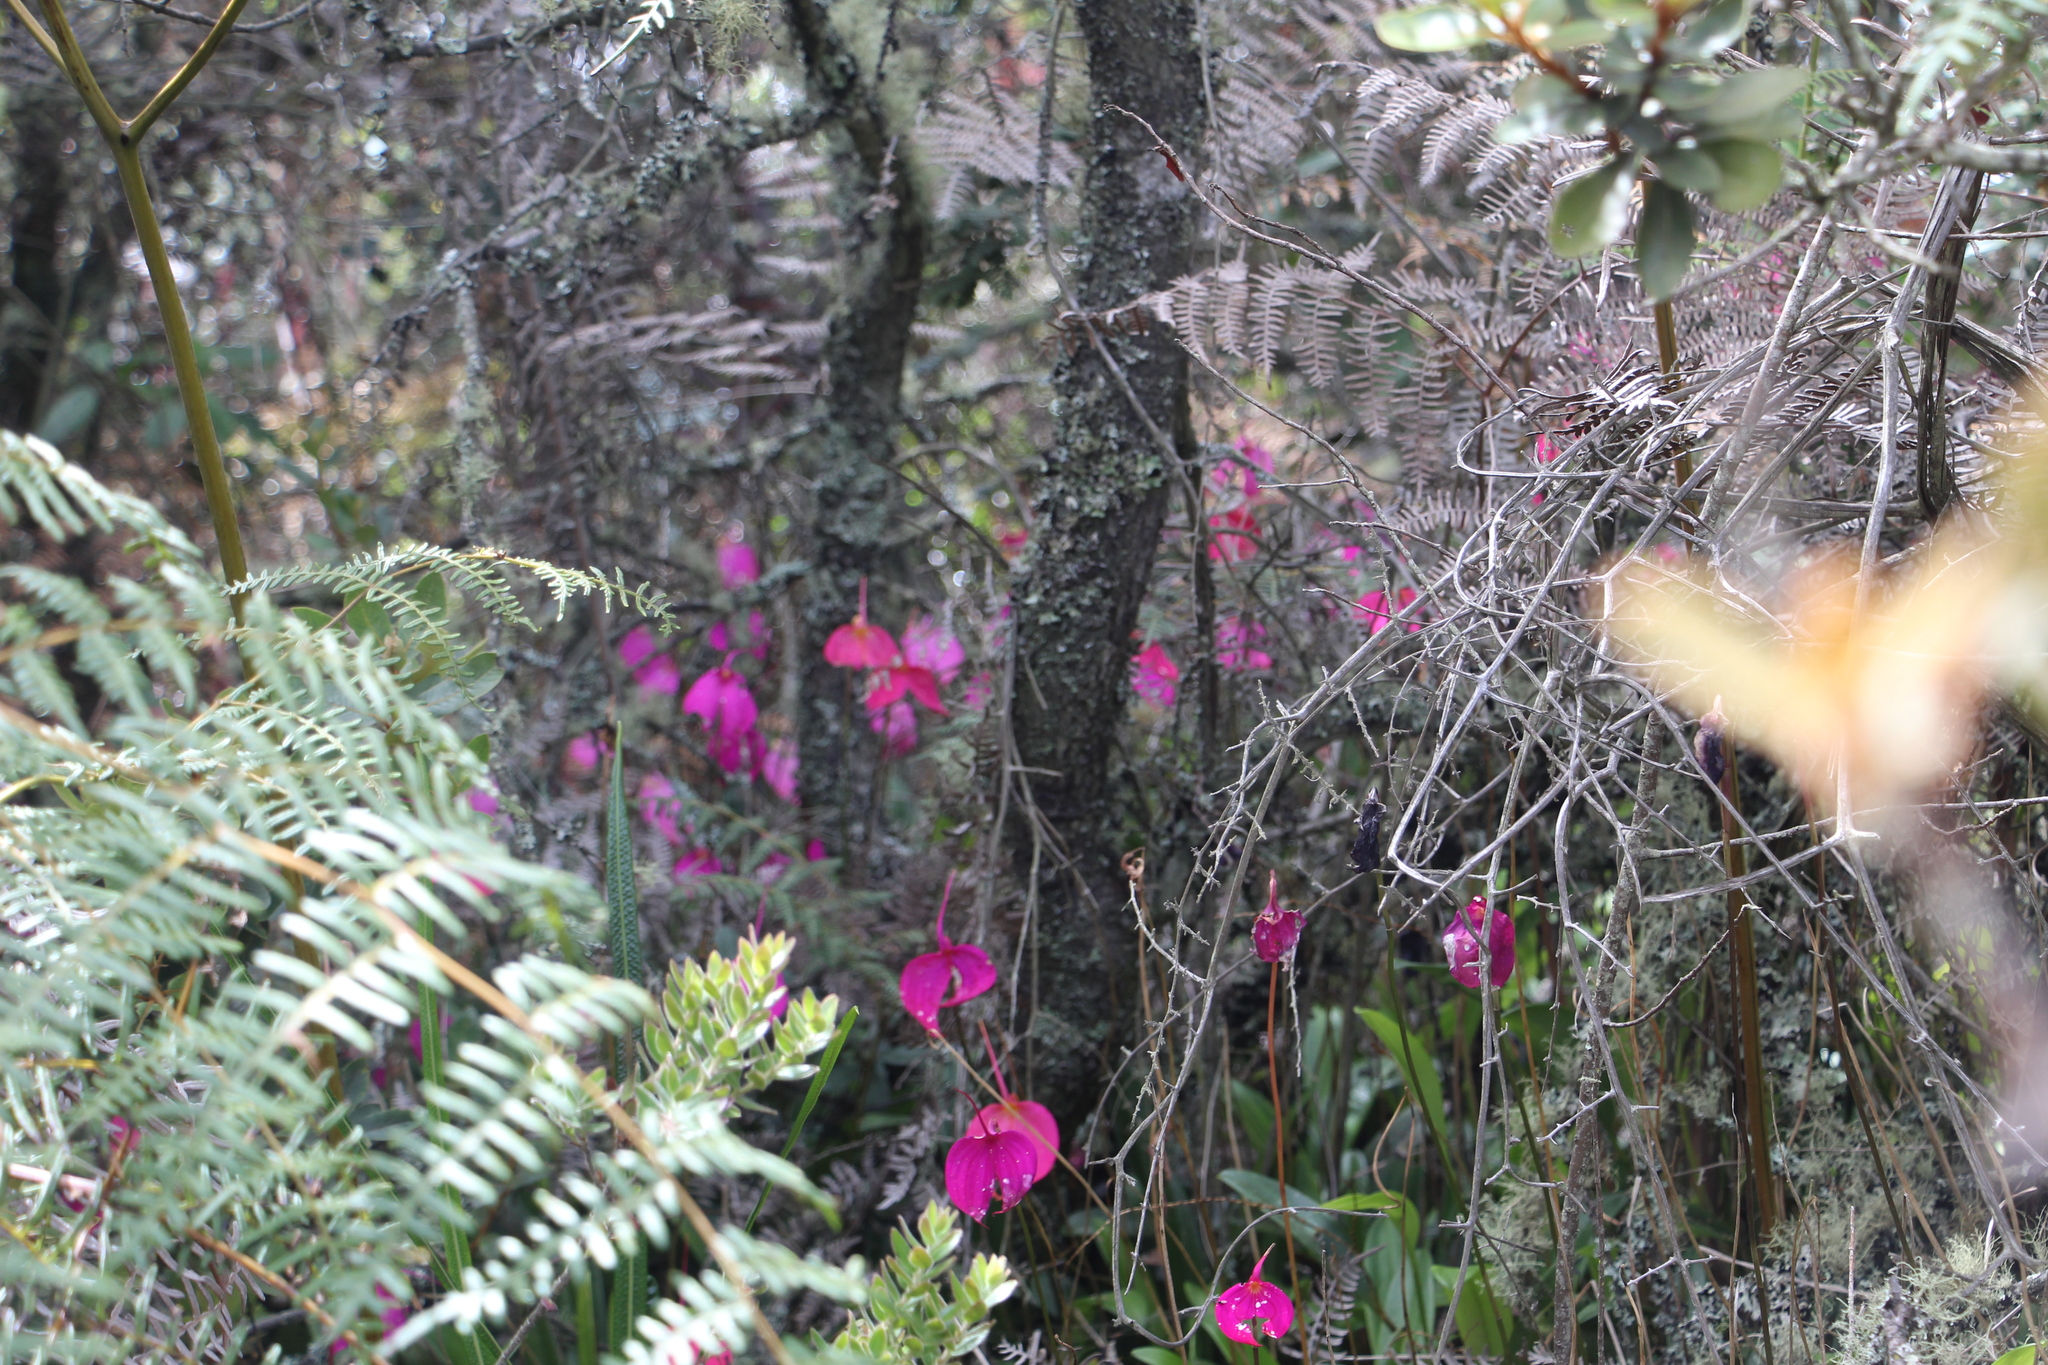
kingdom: Plantae
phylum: Tracheophyta
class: Liliopsida
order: Asparagales
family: Orchidaceae
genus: Masdevallia
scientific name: Masdevallia coccinea
